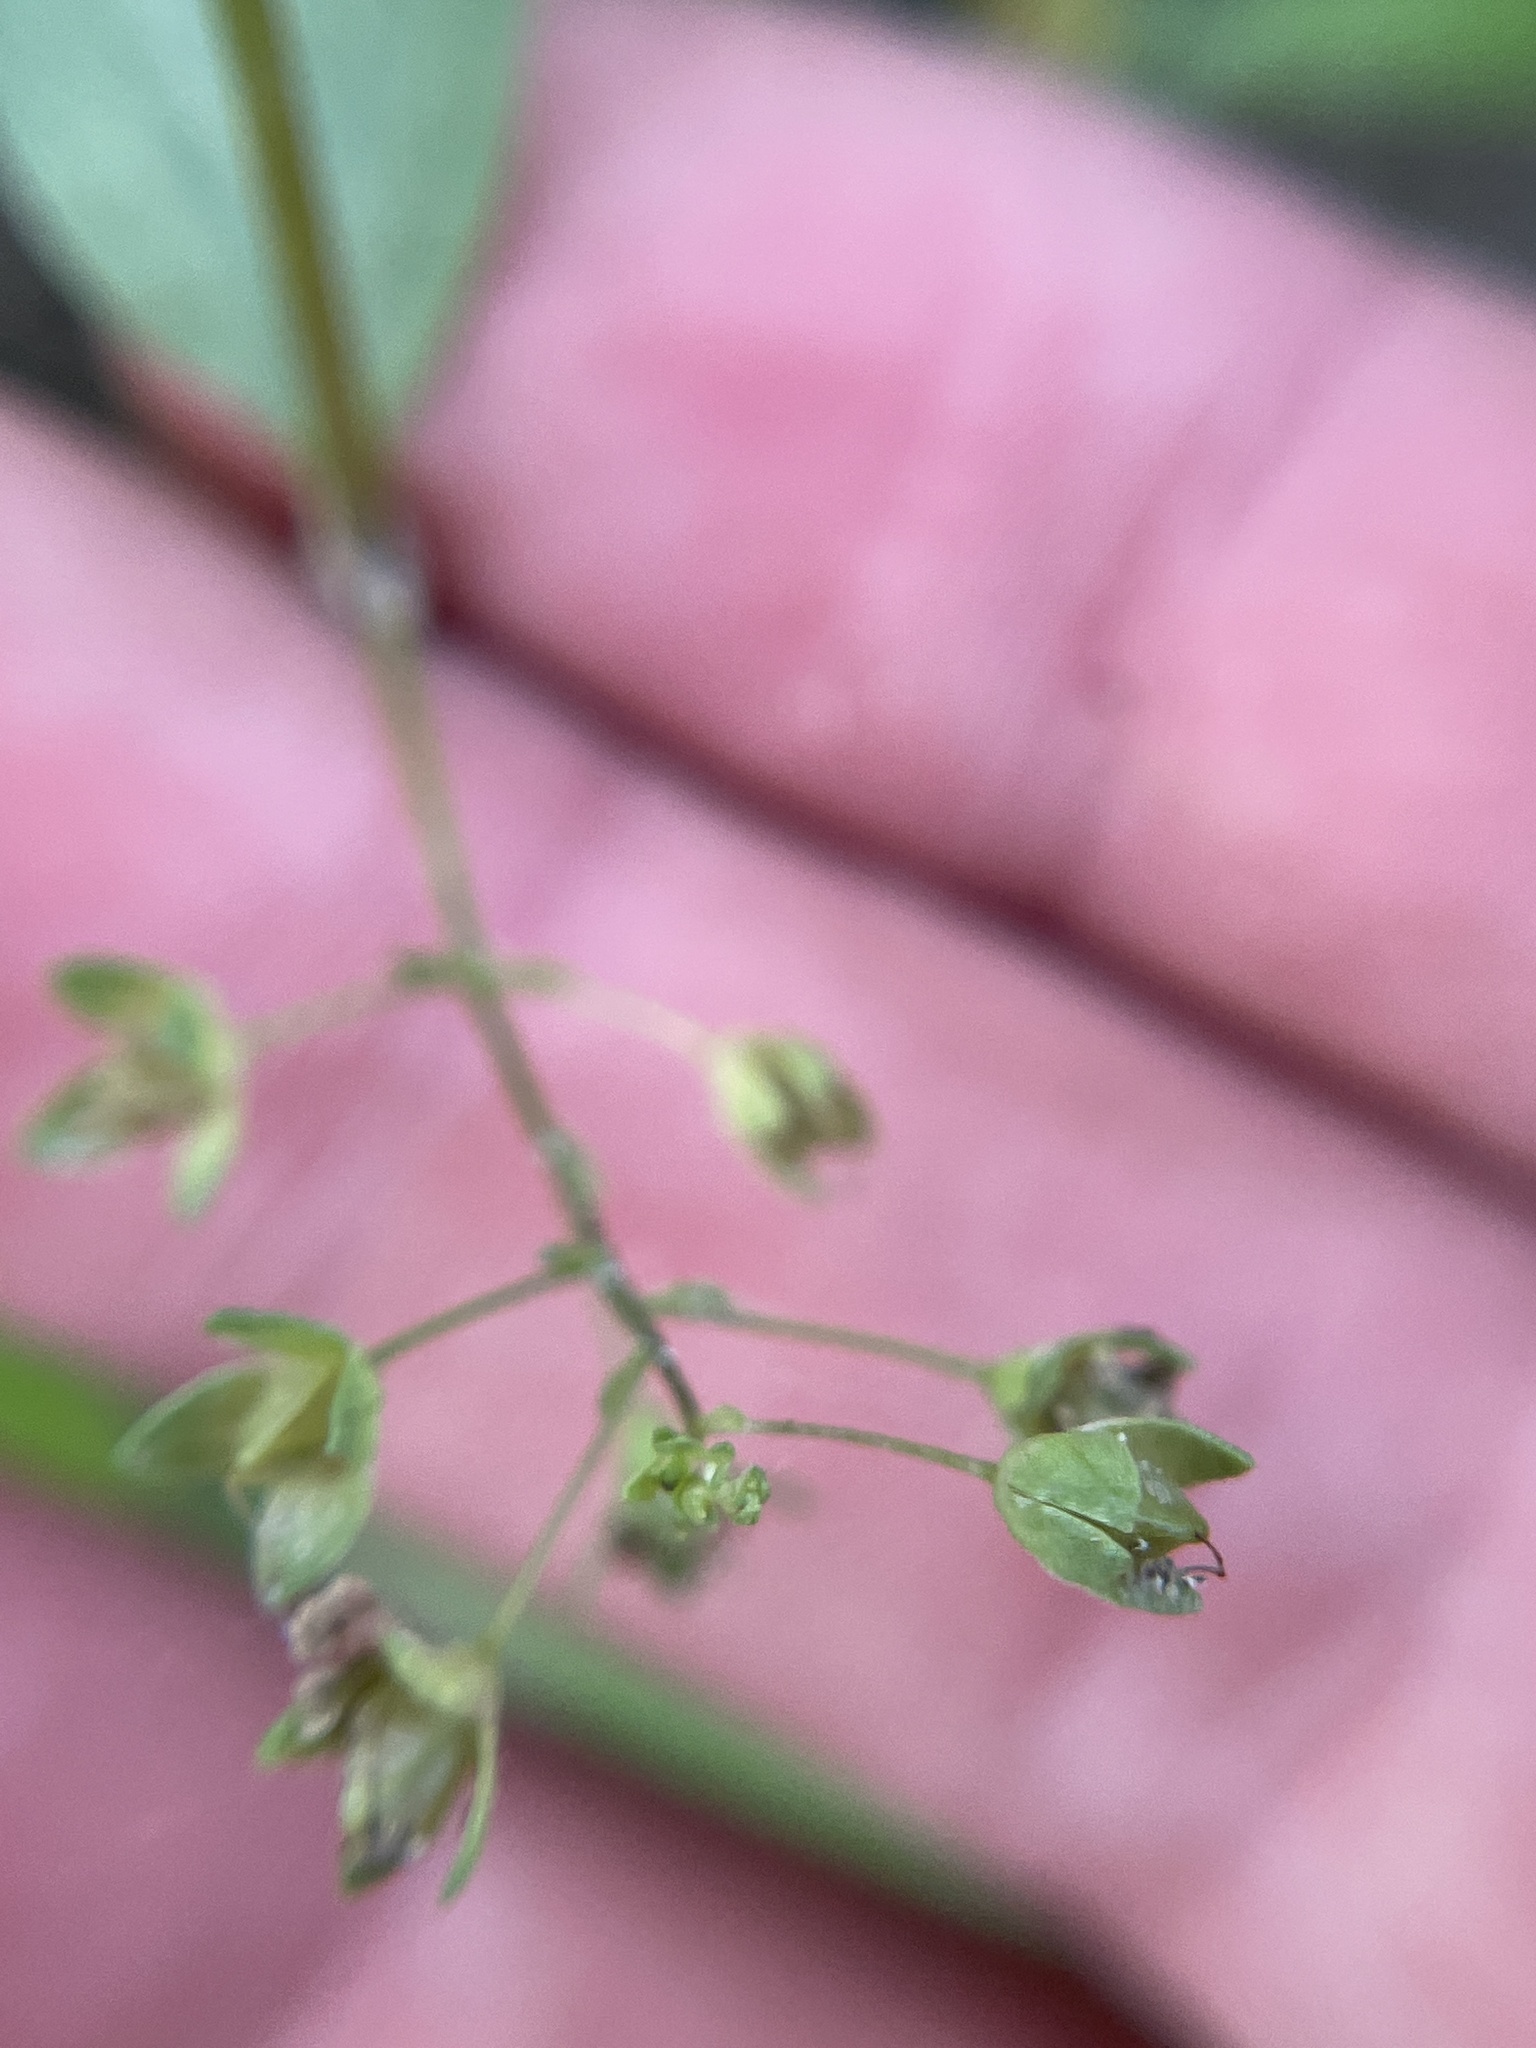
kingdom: Plantae
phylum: Tracheophyta
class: Magnoliopsida
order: Lamiales
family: Plantaginaceae
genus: Veronica
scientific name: Veronica anagallis-aquatica
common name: Water speedwell
